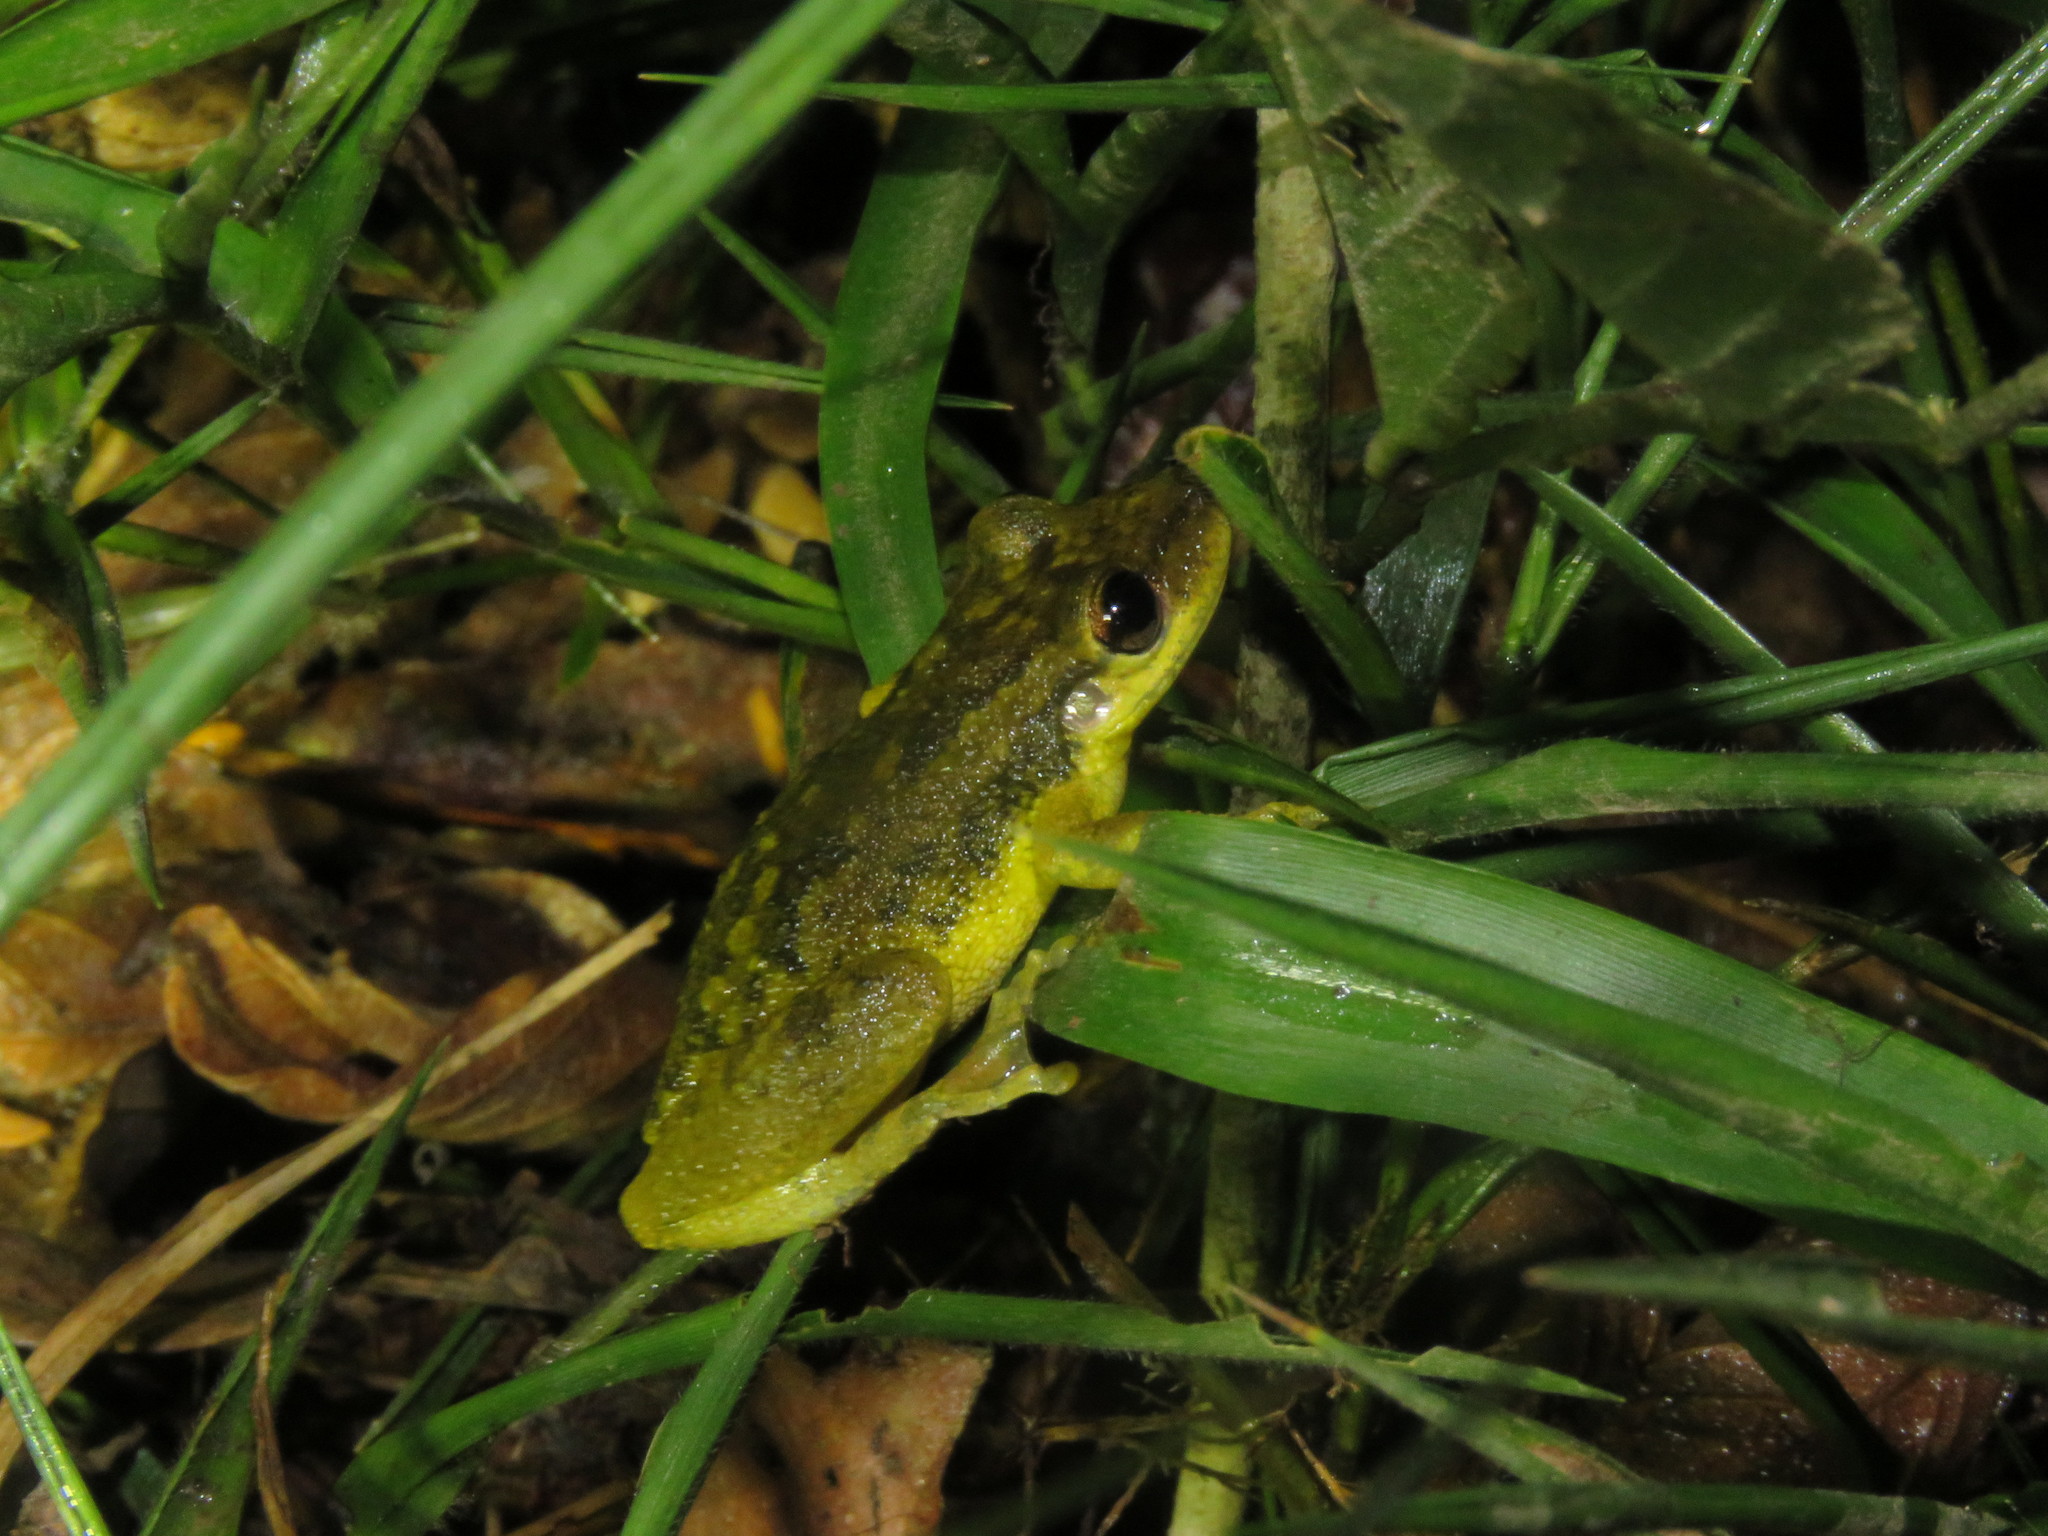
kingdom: Animalia
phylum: Chordata
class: Amphibia
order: Anura
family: Hylidae
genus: Scinax
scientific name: Scinax ruber
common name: Red snouted treefrog
